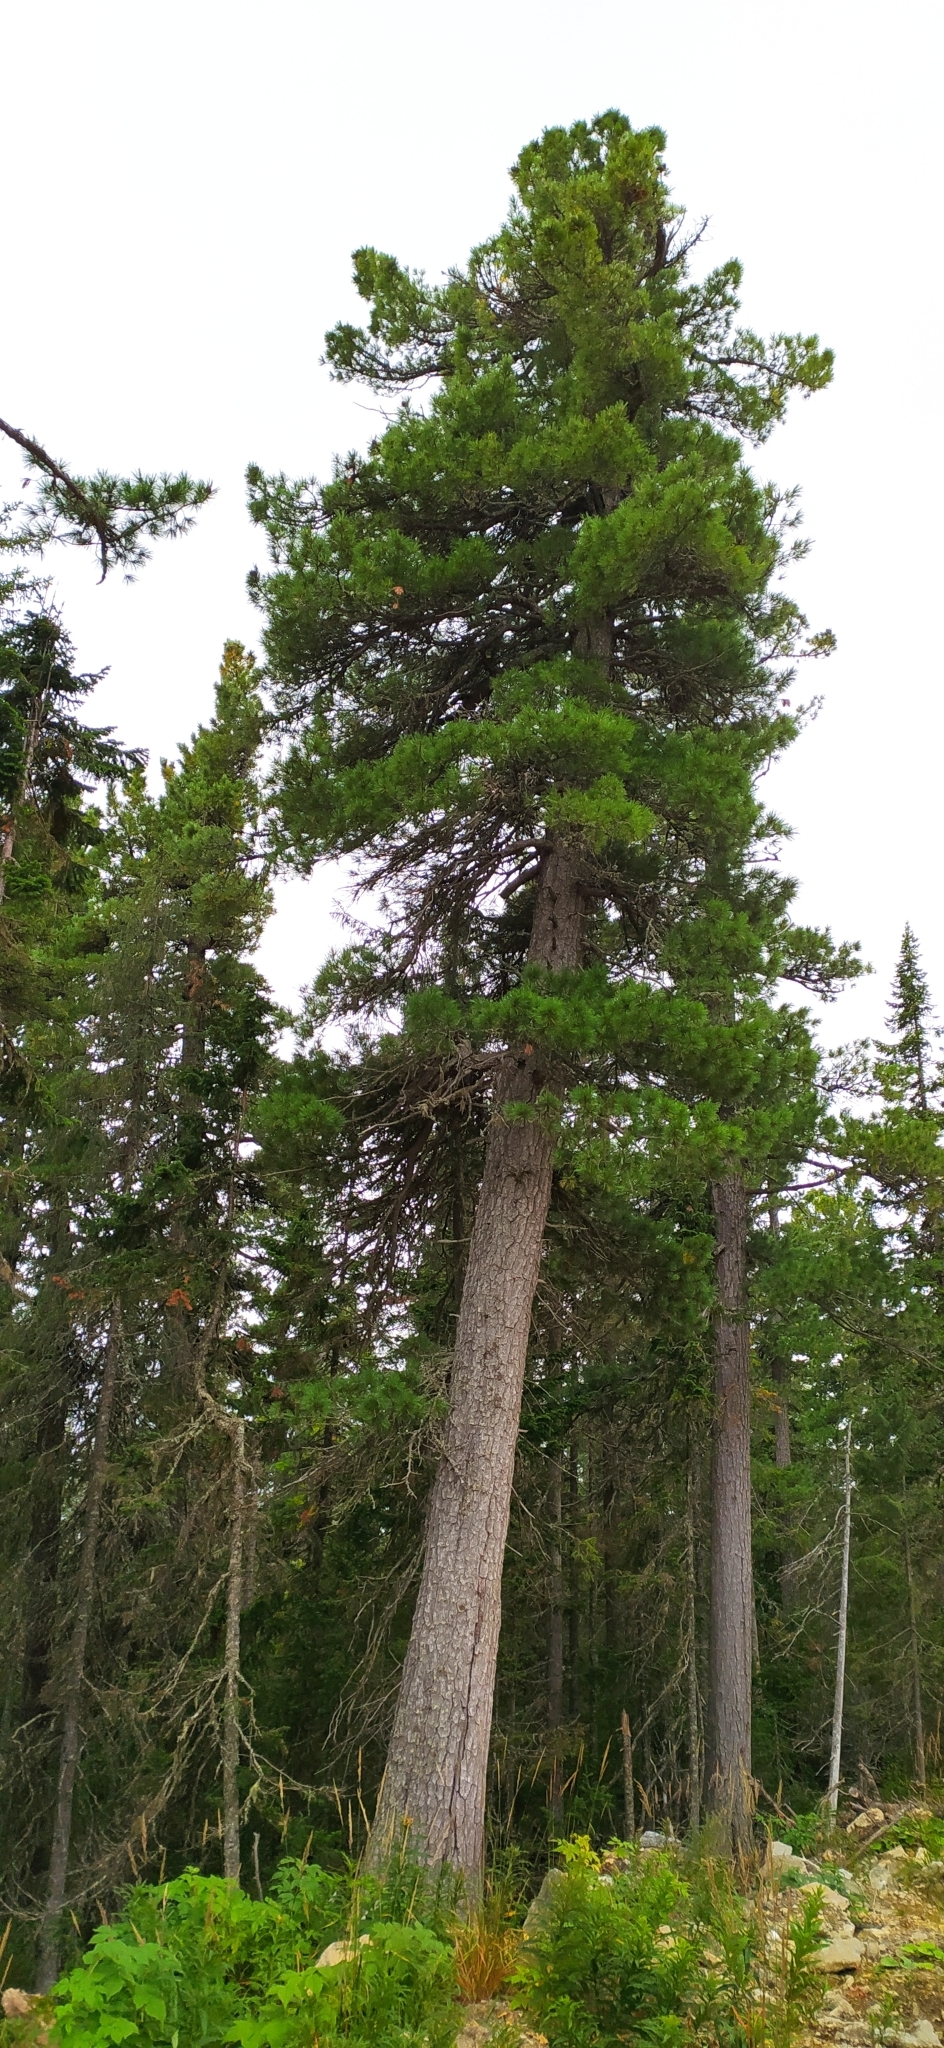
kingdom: Plantae
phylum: Tracheophyta
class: Pinopsida
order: Pinales
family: Pinaceae
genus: Pinus
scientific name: Pinus sibirica
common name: Siberian pine
